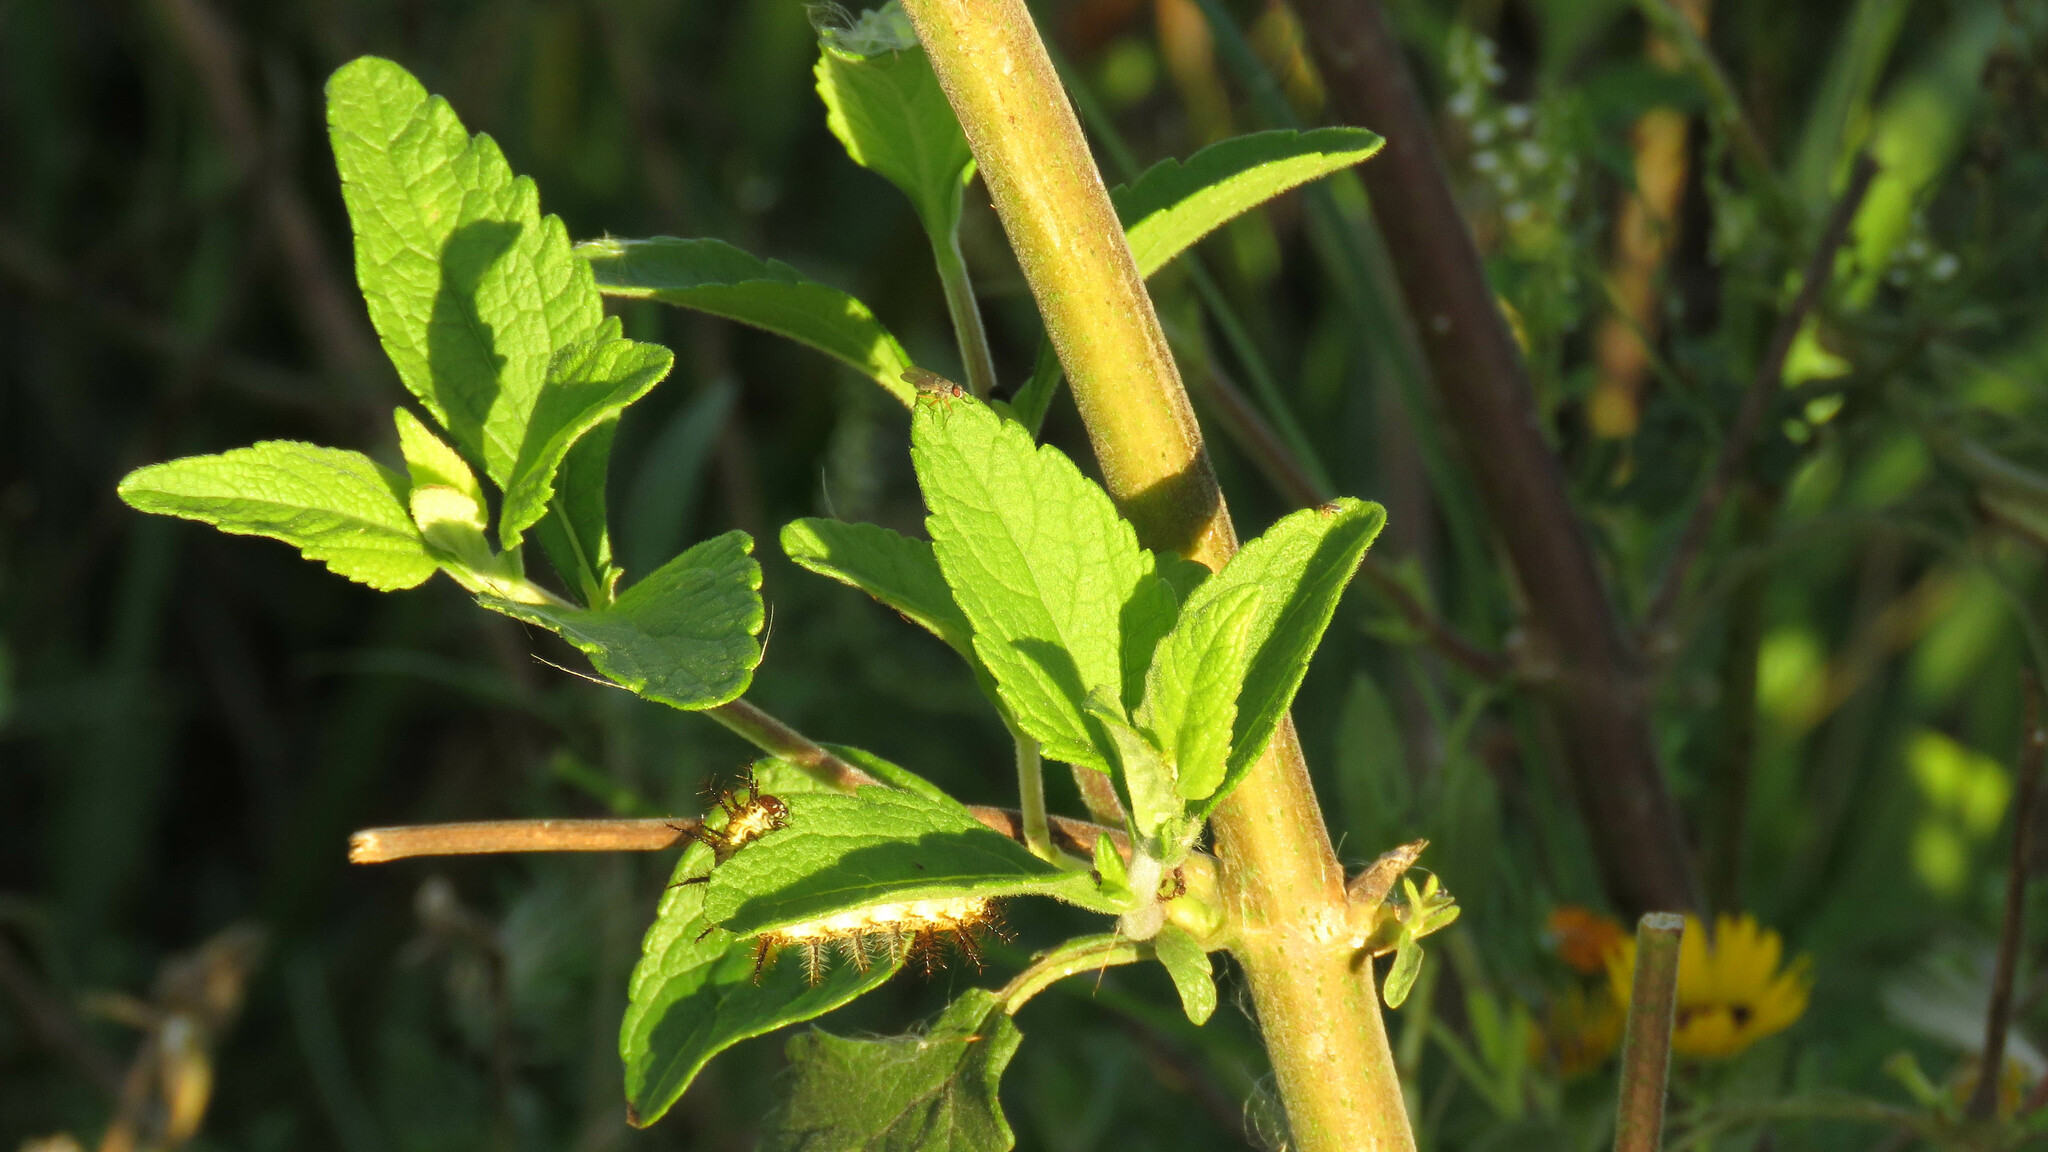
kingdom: Plantae
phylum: Tracheophyta
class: Magnoliopsida
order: Asterales
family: Asteraceae
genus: Austroeupatorium
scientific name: Austroeupatorium inulifolium
